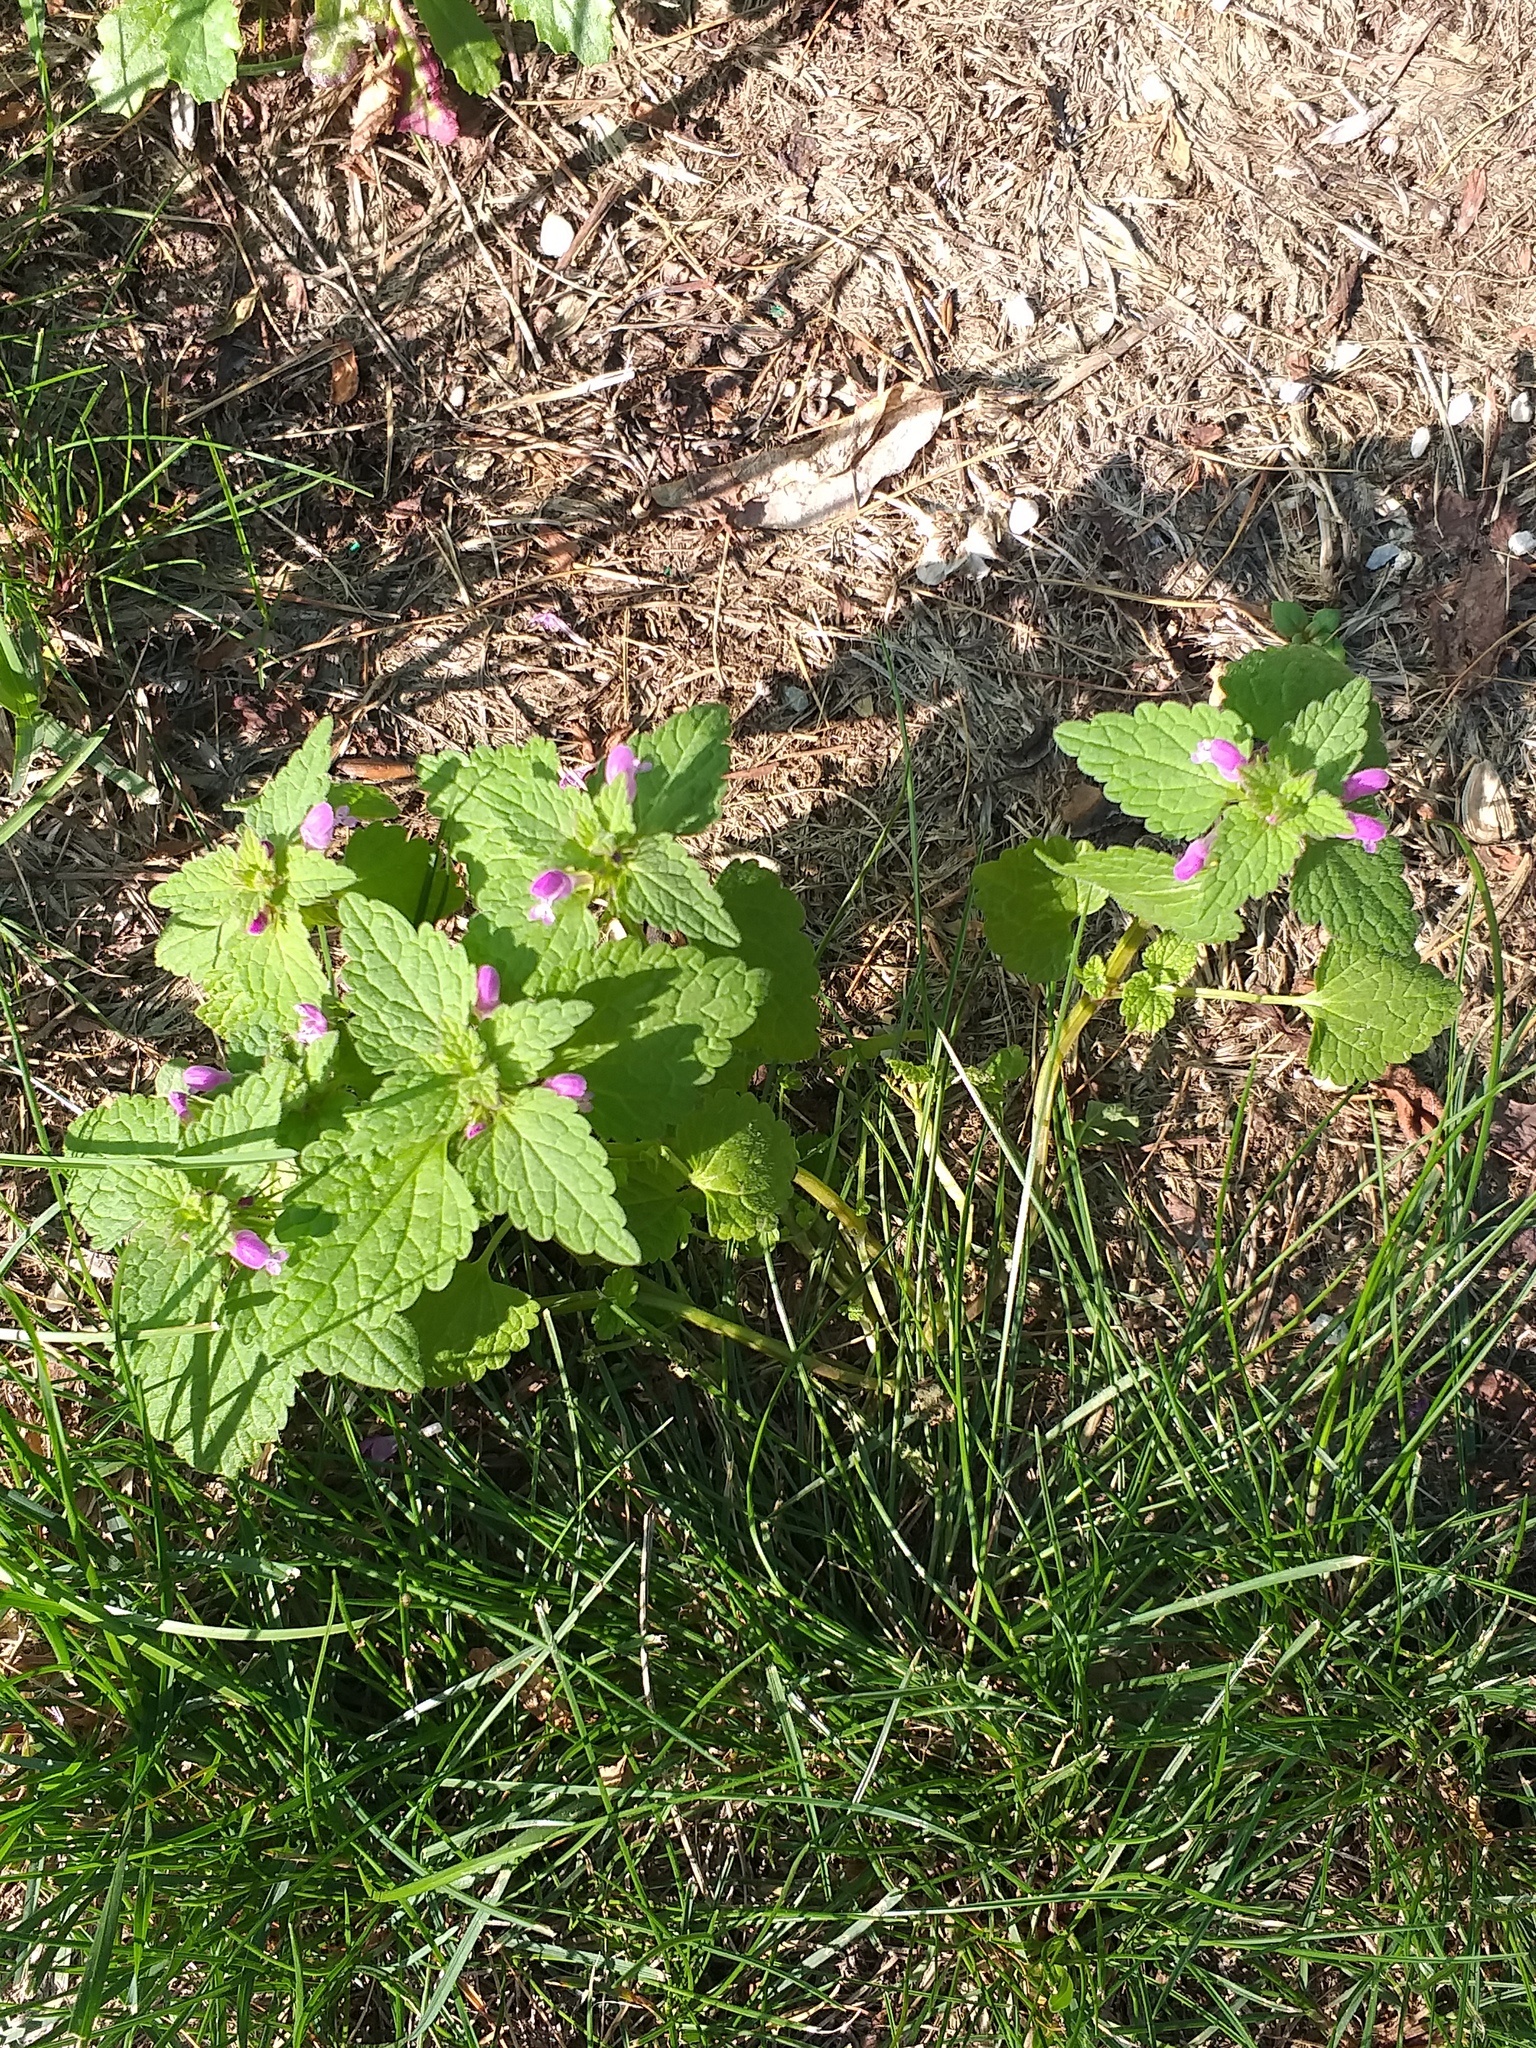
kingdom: Plantae
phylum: Tracheophyta
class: Magnoliopsida
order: Lamiales
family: Lamiaceae
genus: Lamium
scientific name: Lamium purpureum
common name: Red dead-nettle
